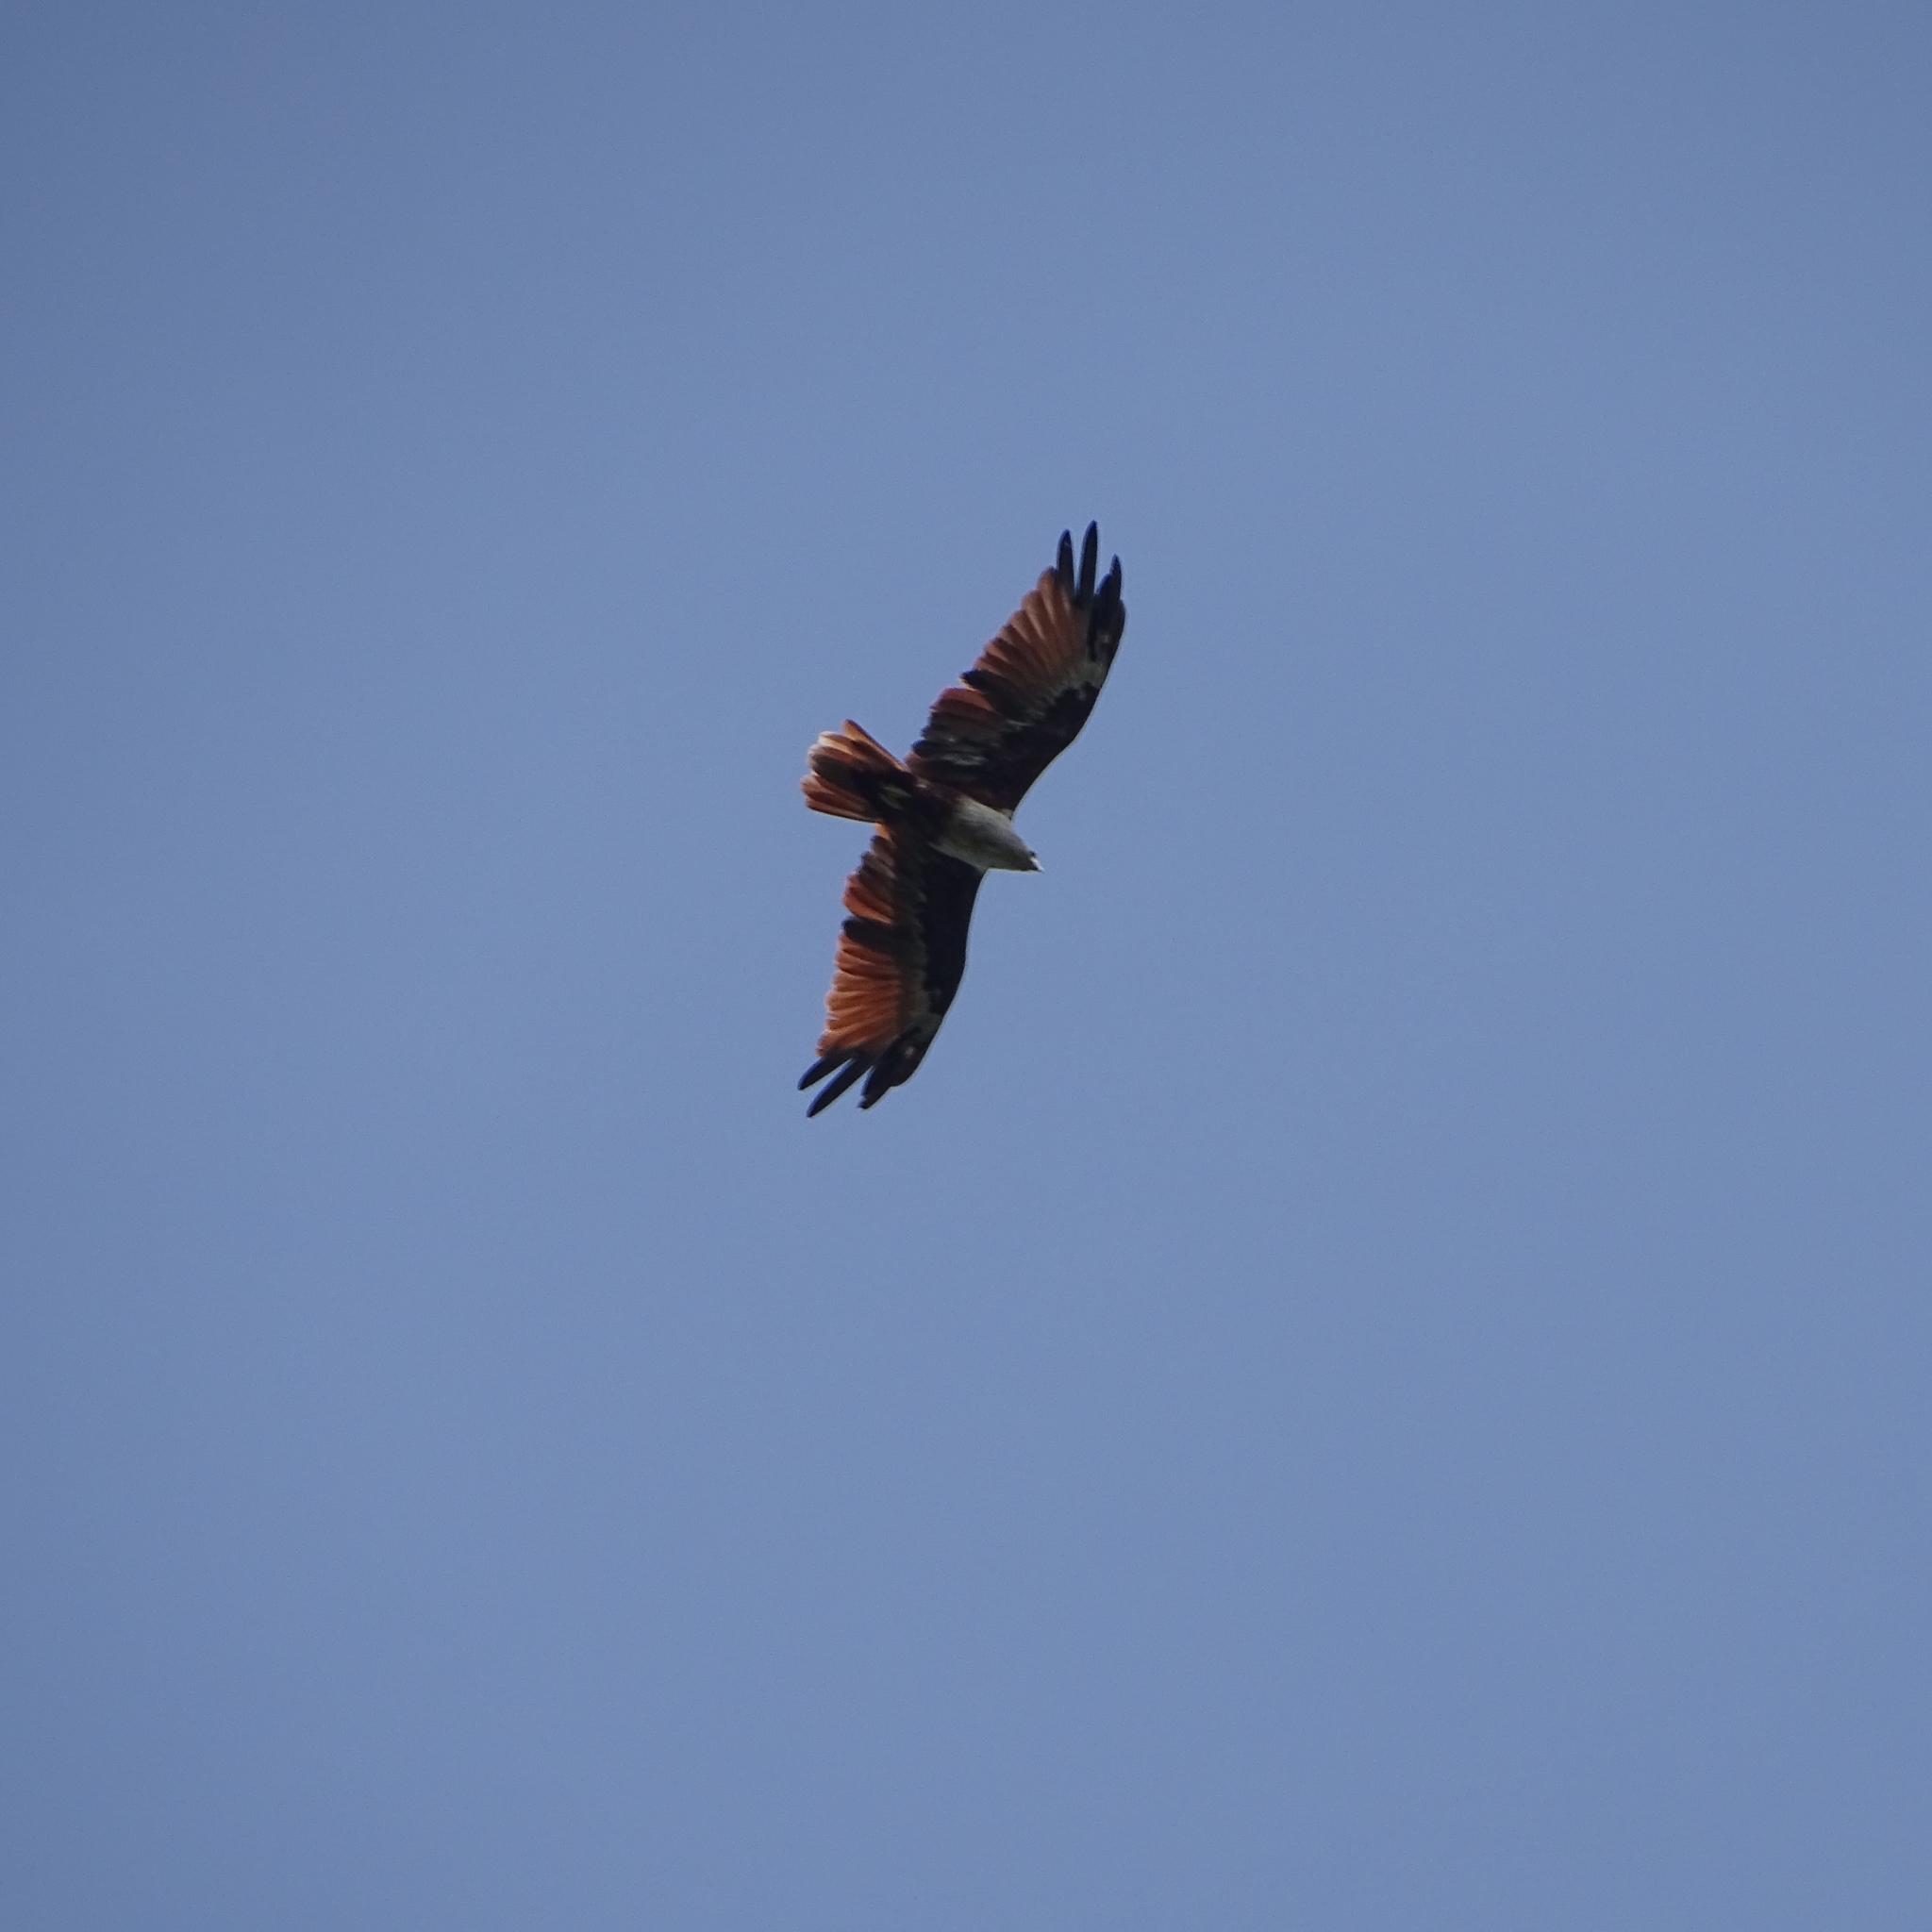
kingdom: Animalia
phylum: Chordata
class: Aves
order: Accipitriformes
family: Accipitridae
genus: Haliastur
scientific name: Haliastur indus
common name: Brahminy kite
